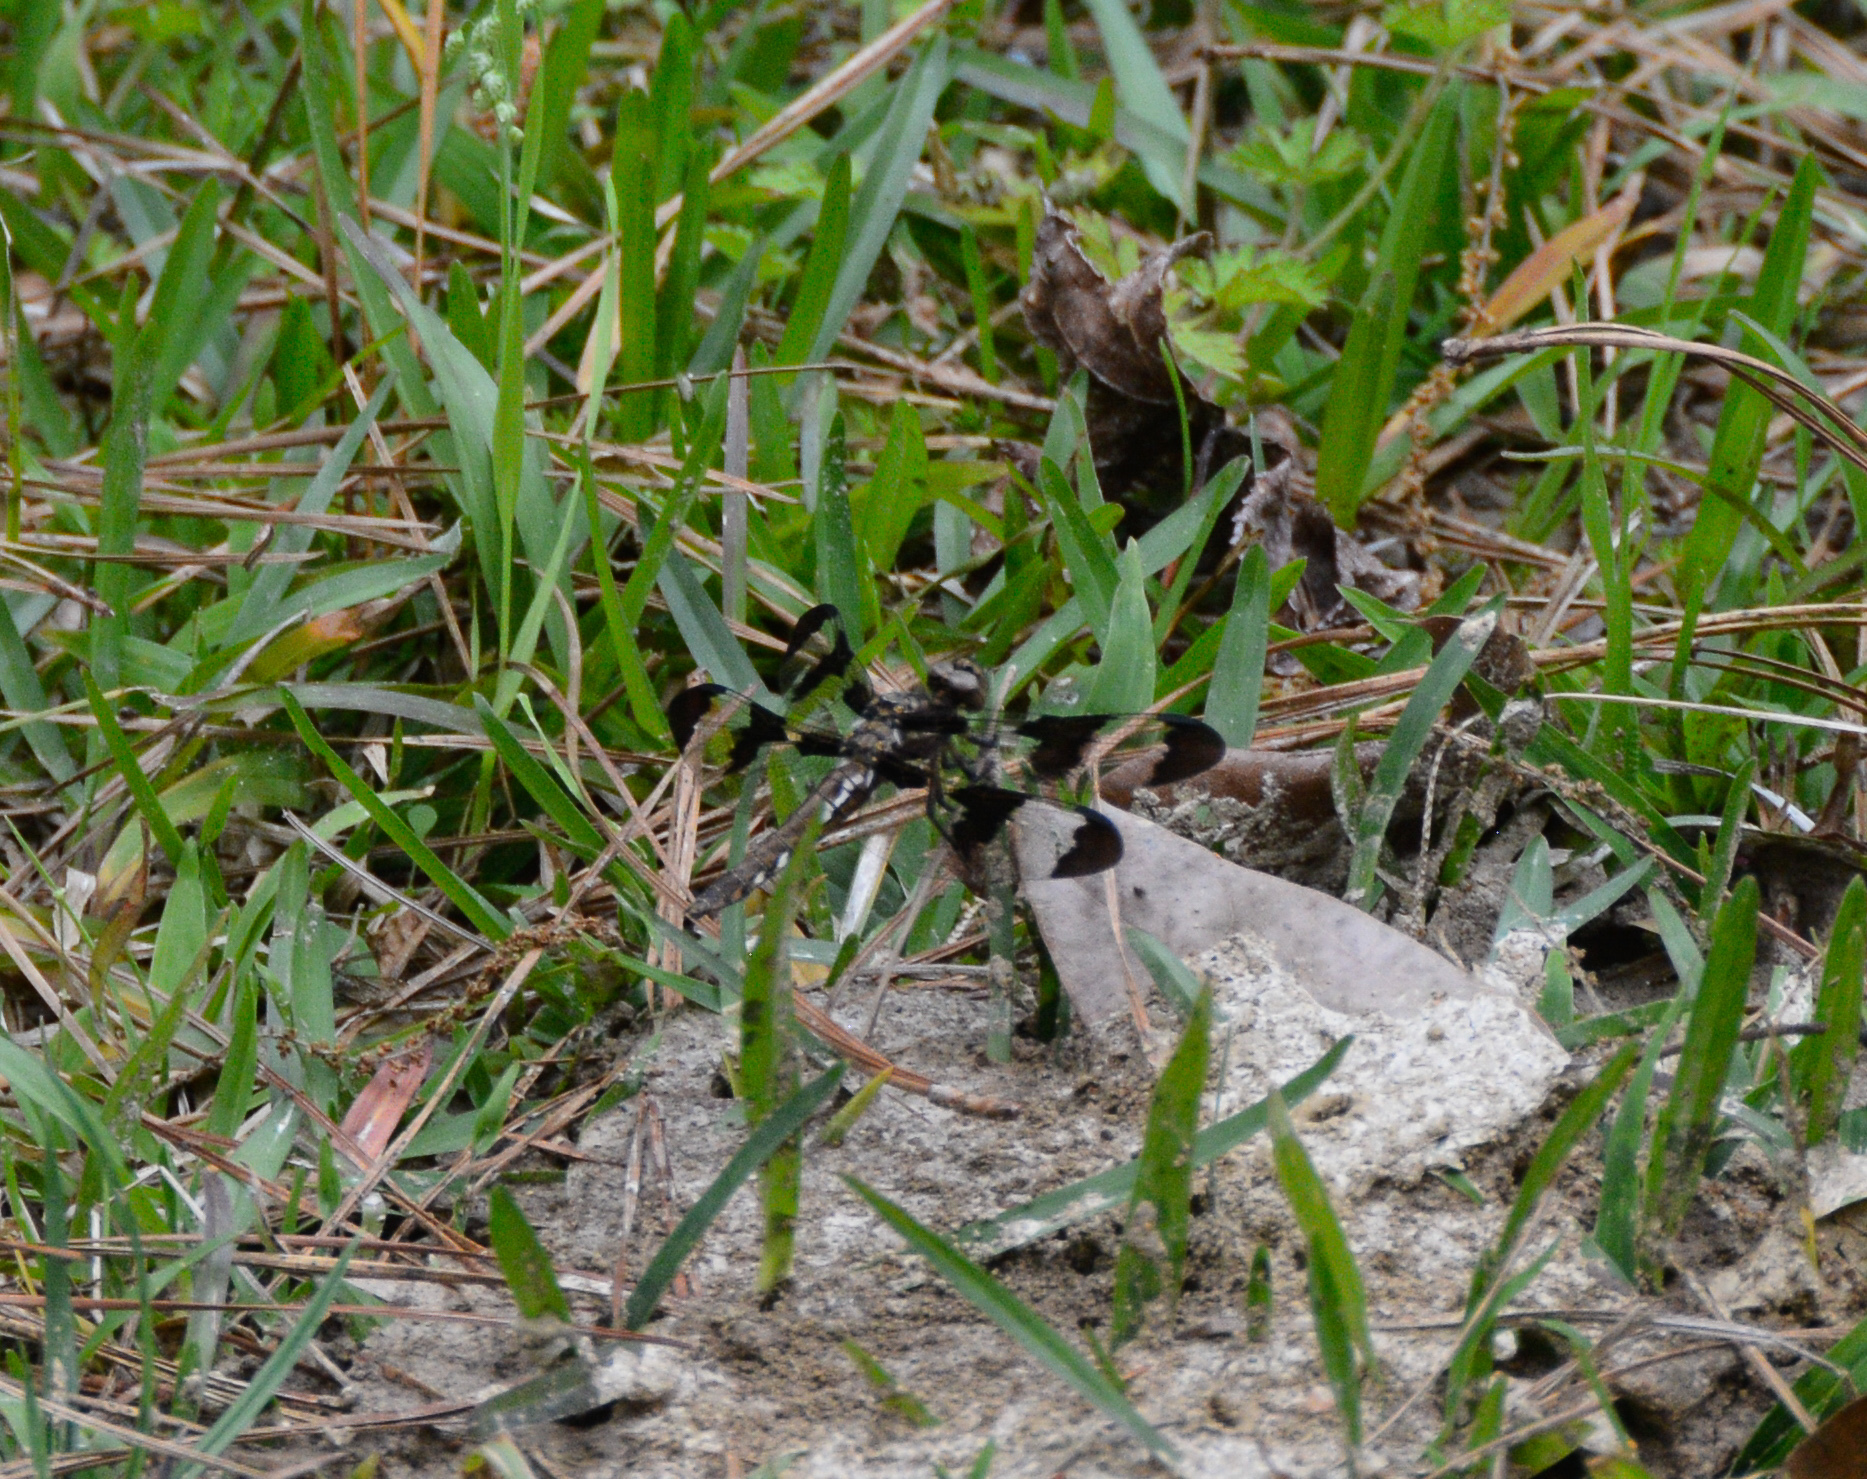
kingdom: Animalia
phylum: Arthropoda
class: Insecta
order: Odonata
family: Libellulidae
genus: Plathemis
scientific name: Plathemis lydia
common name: Common whitetail
